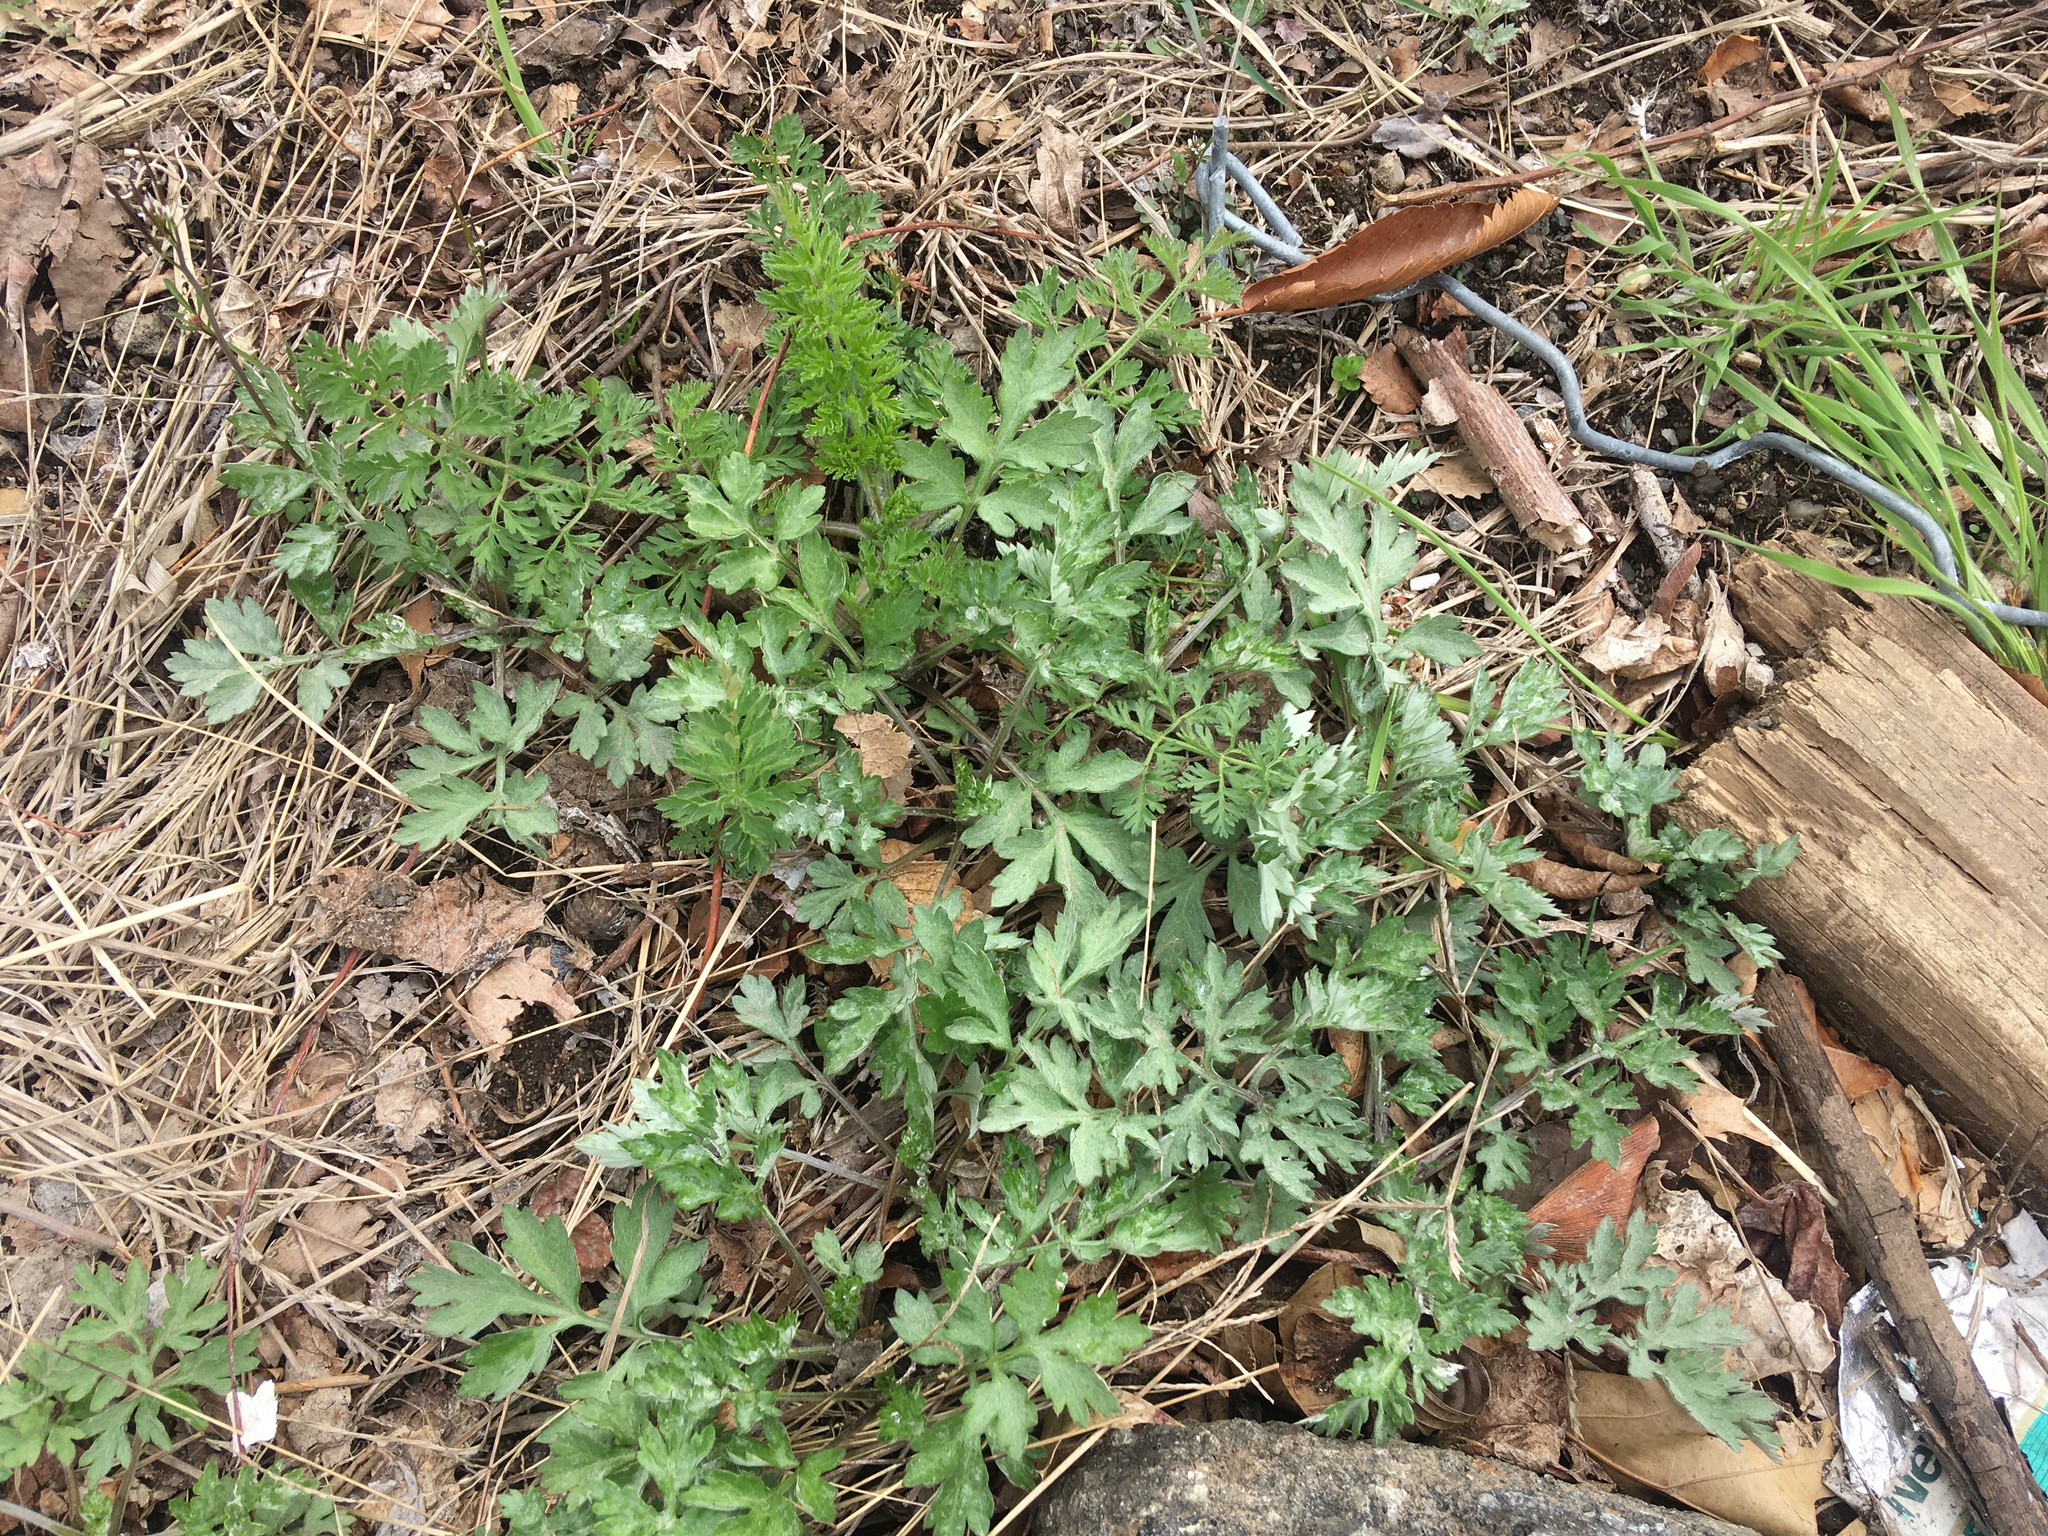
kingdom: Plantae
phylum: Tracheophyta
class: Magnoliopsida
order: Asterales
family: Asteraceae
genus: Artemisia
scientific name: Artemisia vulgaris
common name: Mugwort
